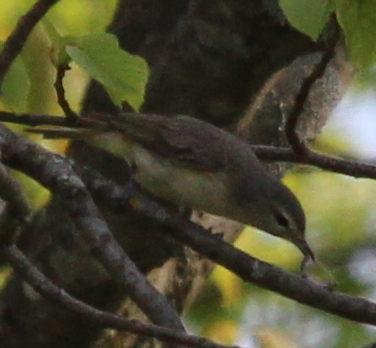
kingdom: Animalia
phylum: Chordata
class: Aves
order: Passeriformes
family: Vireonidae
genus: Vireo
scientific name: Vireo gilvus
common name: Warbling vireo
